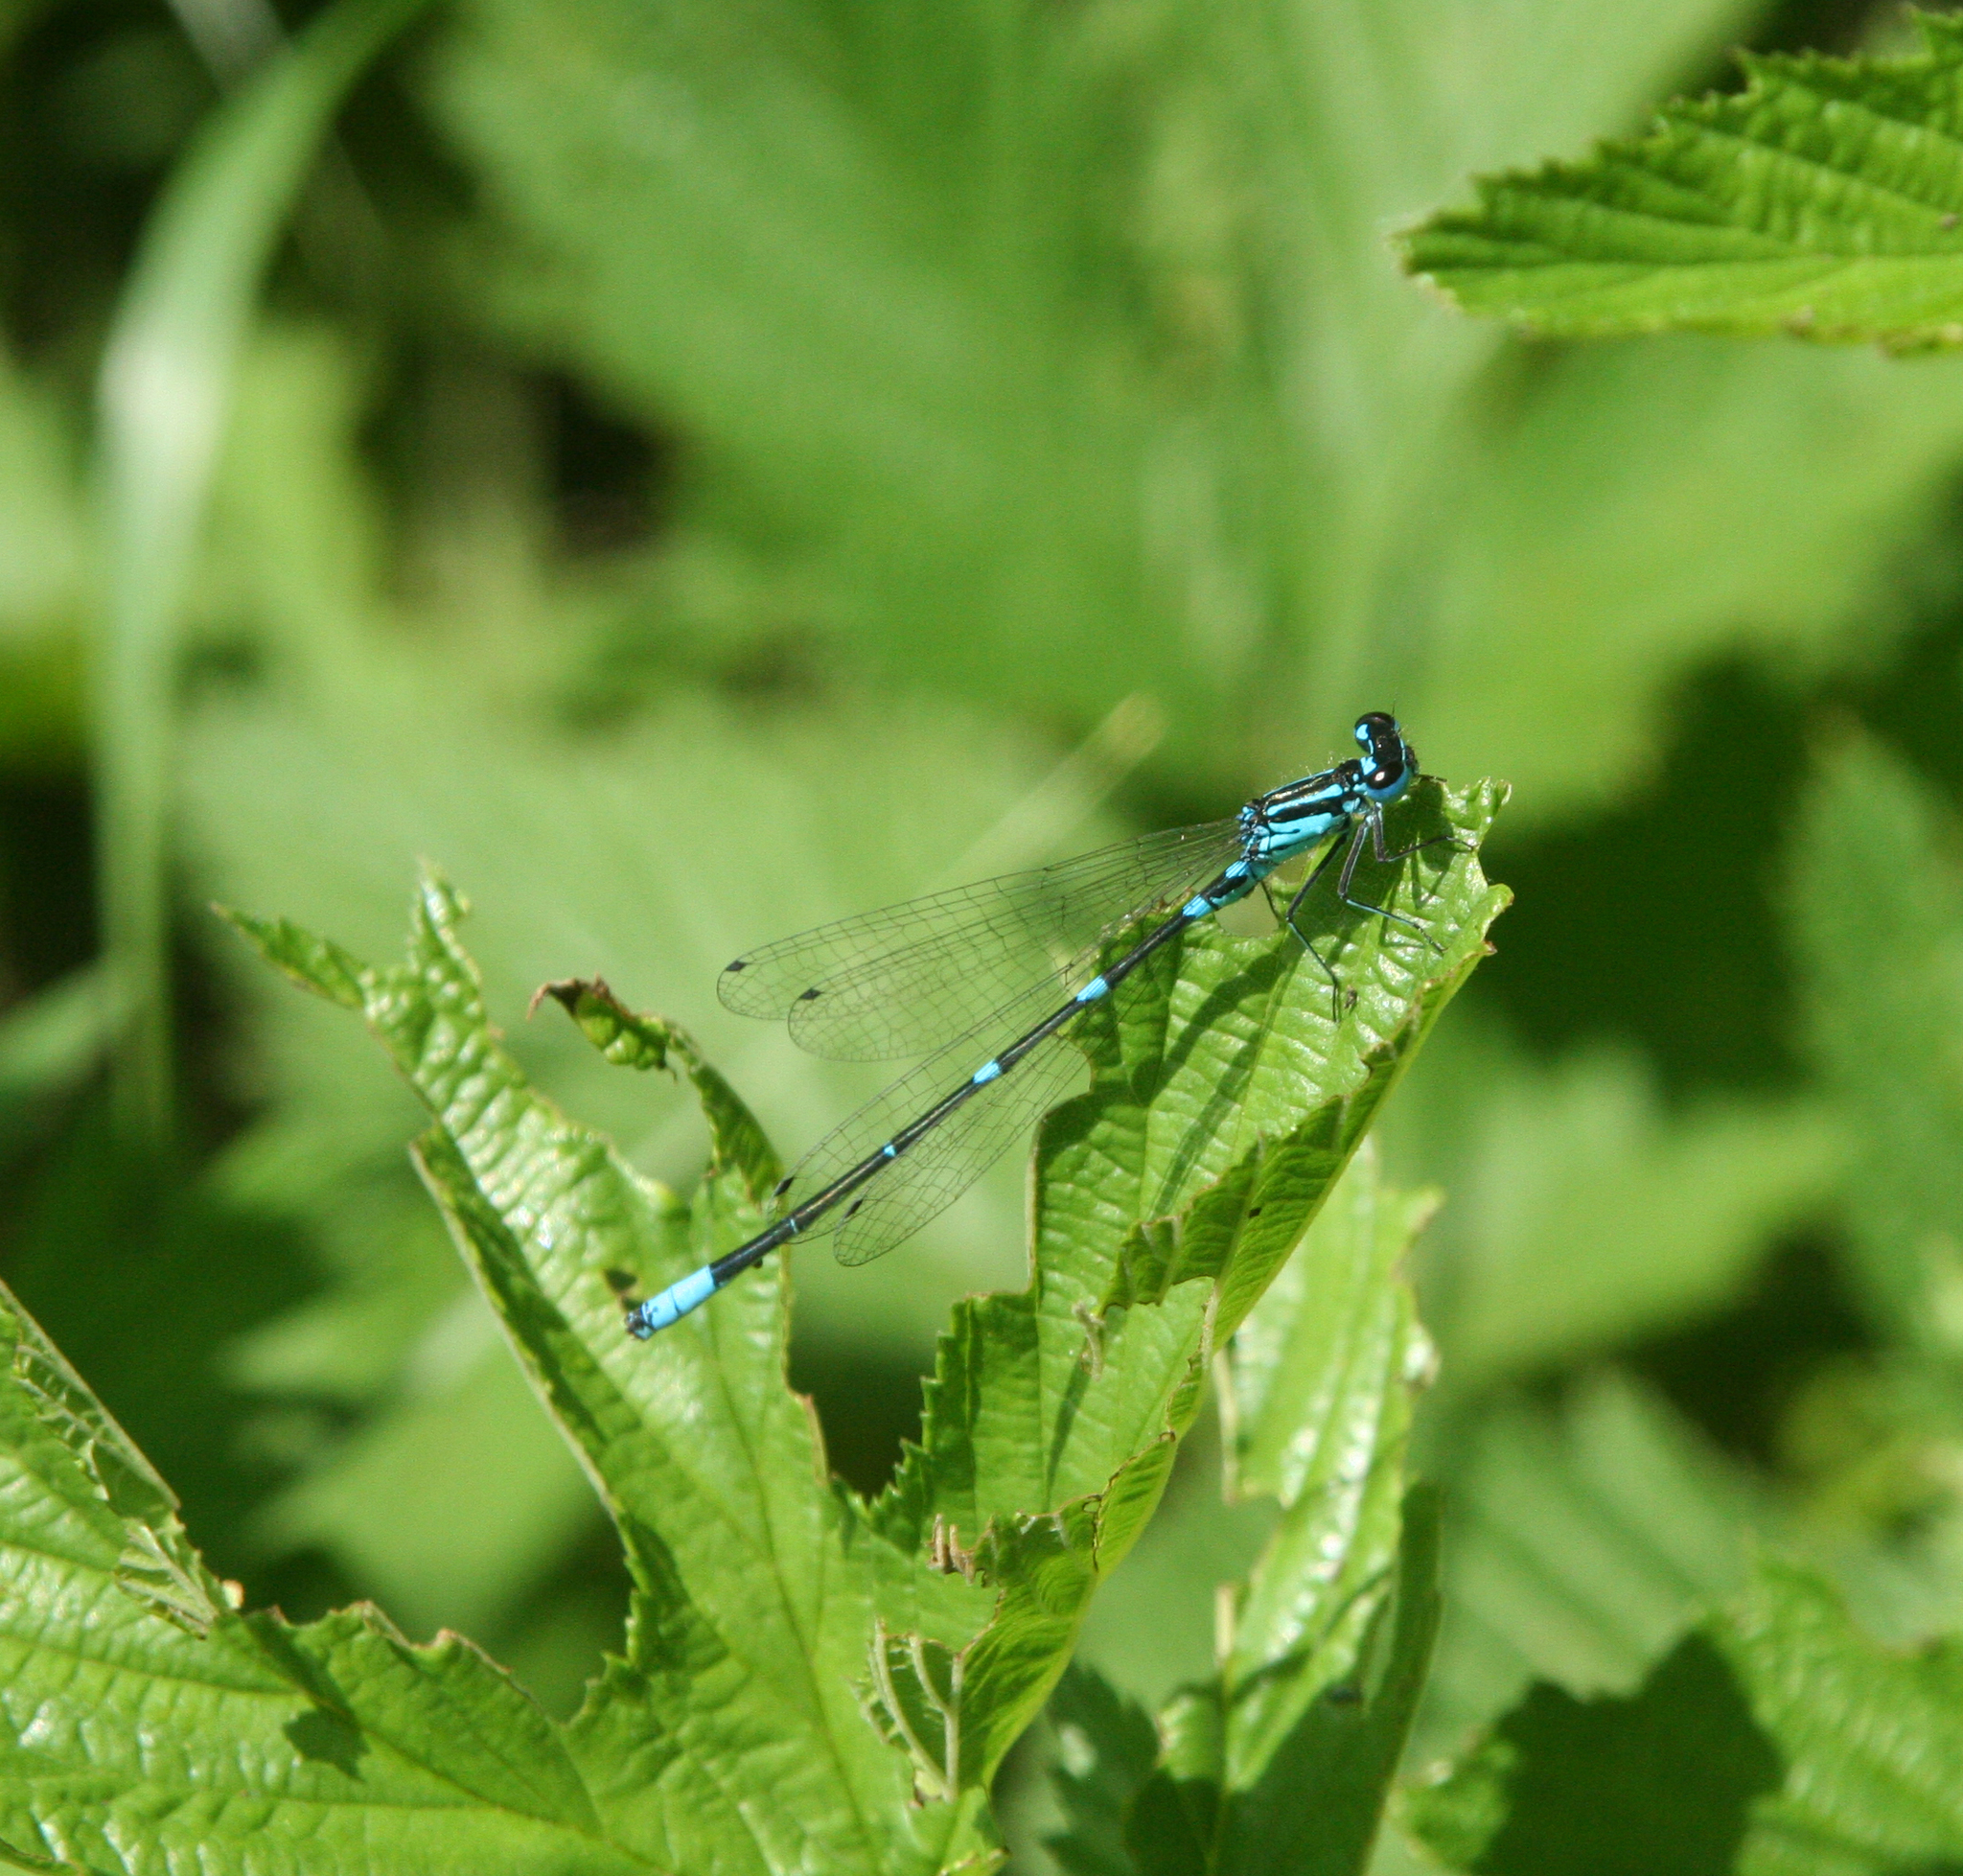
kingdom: Animalia
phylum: Arthropoda
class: Insecta
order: Odonata
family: Coenagrionidae
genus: Coenagrion
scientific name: Coenagrion pulchellum
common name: Variable bluet
